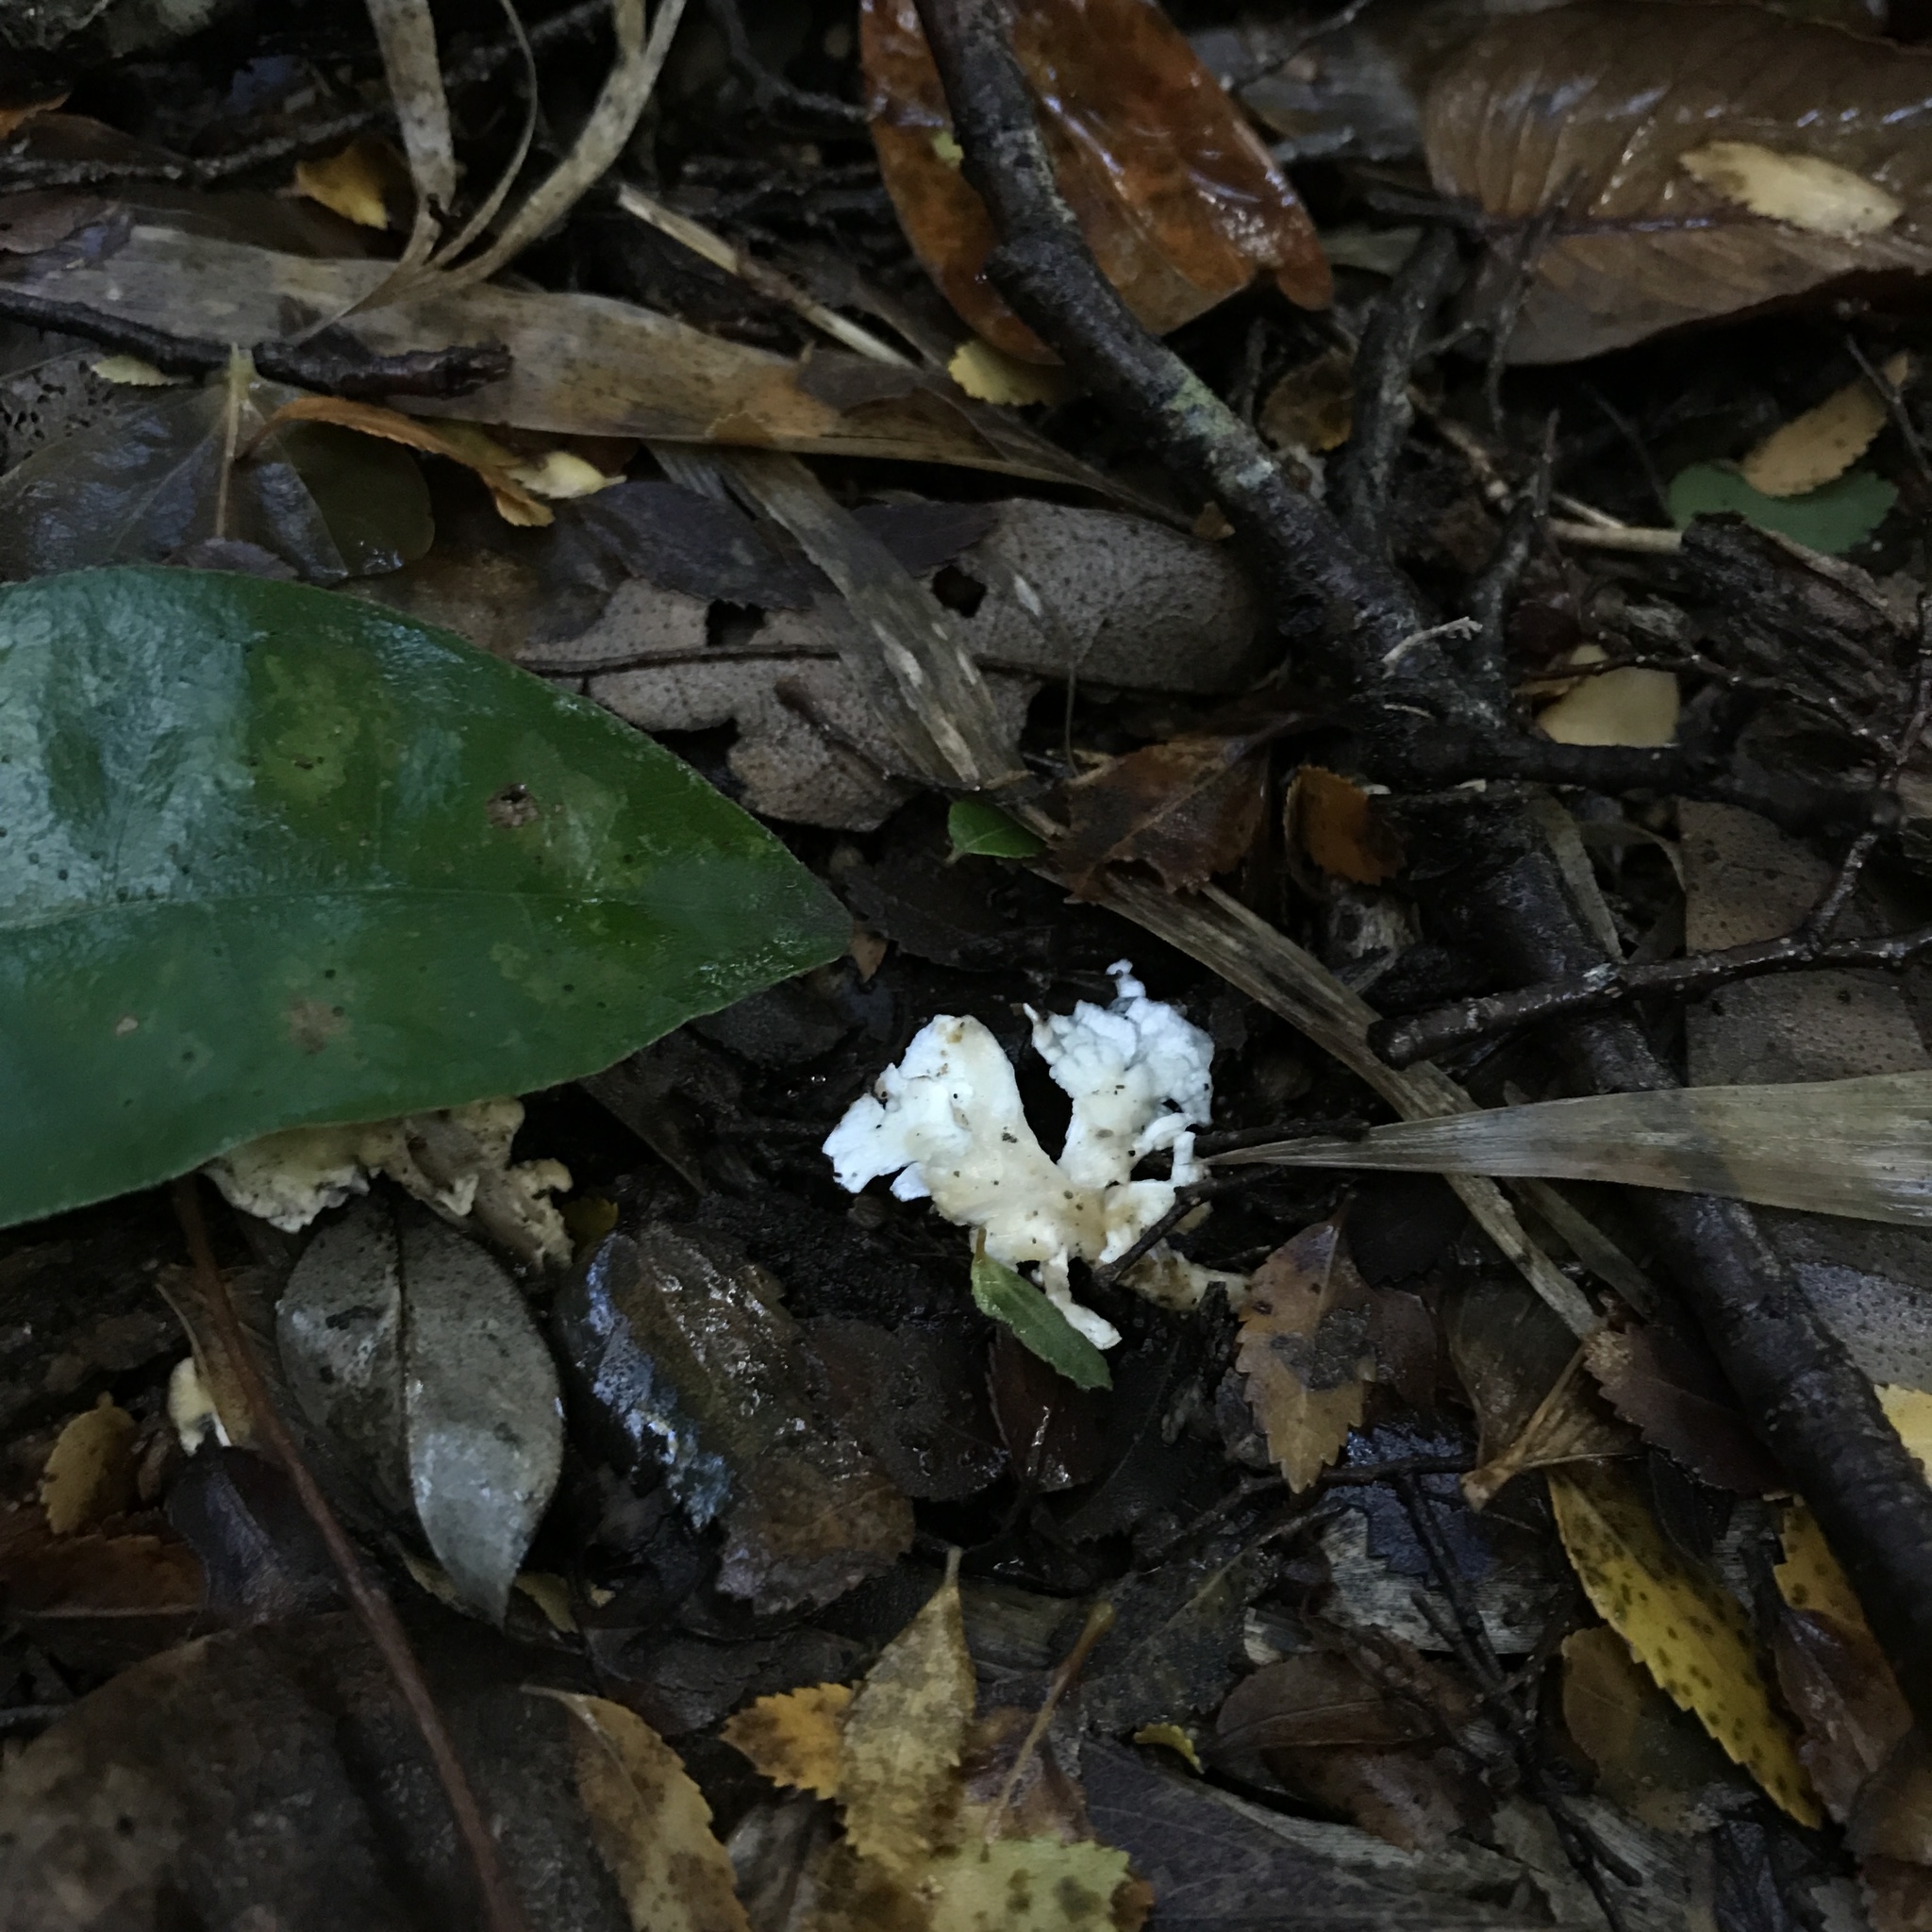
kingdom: Fungi
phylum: Basidiomycota
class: Agaricomycetes
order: Amylocorticiales
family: Amylocorticiaceae
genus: Podoserpula
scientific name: Podoserpula aliweni
